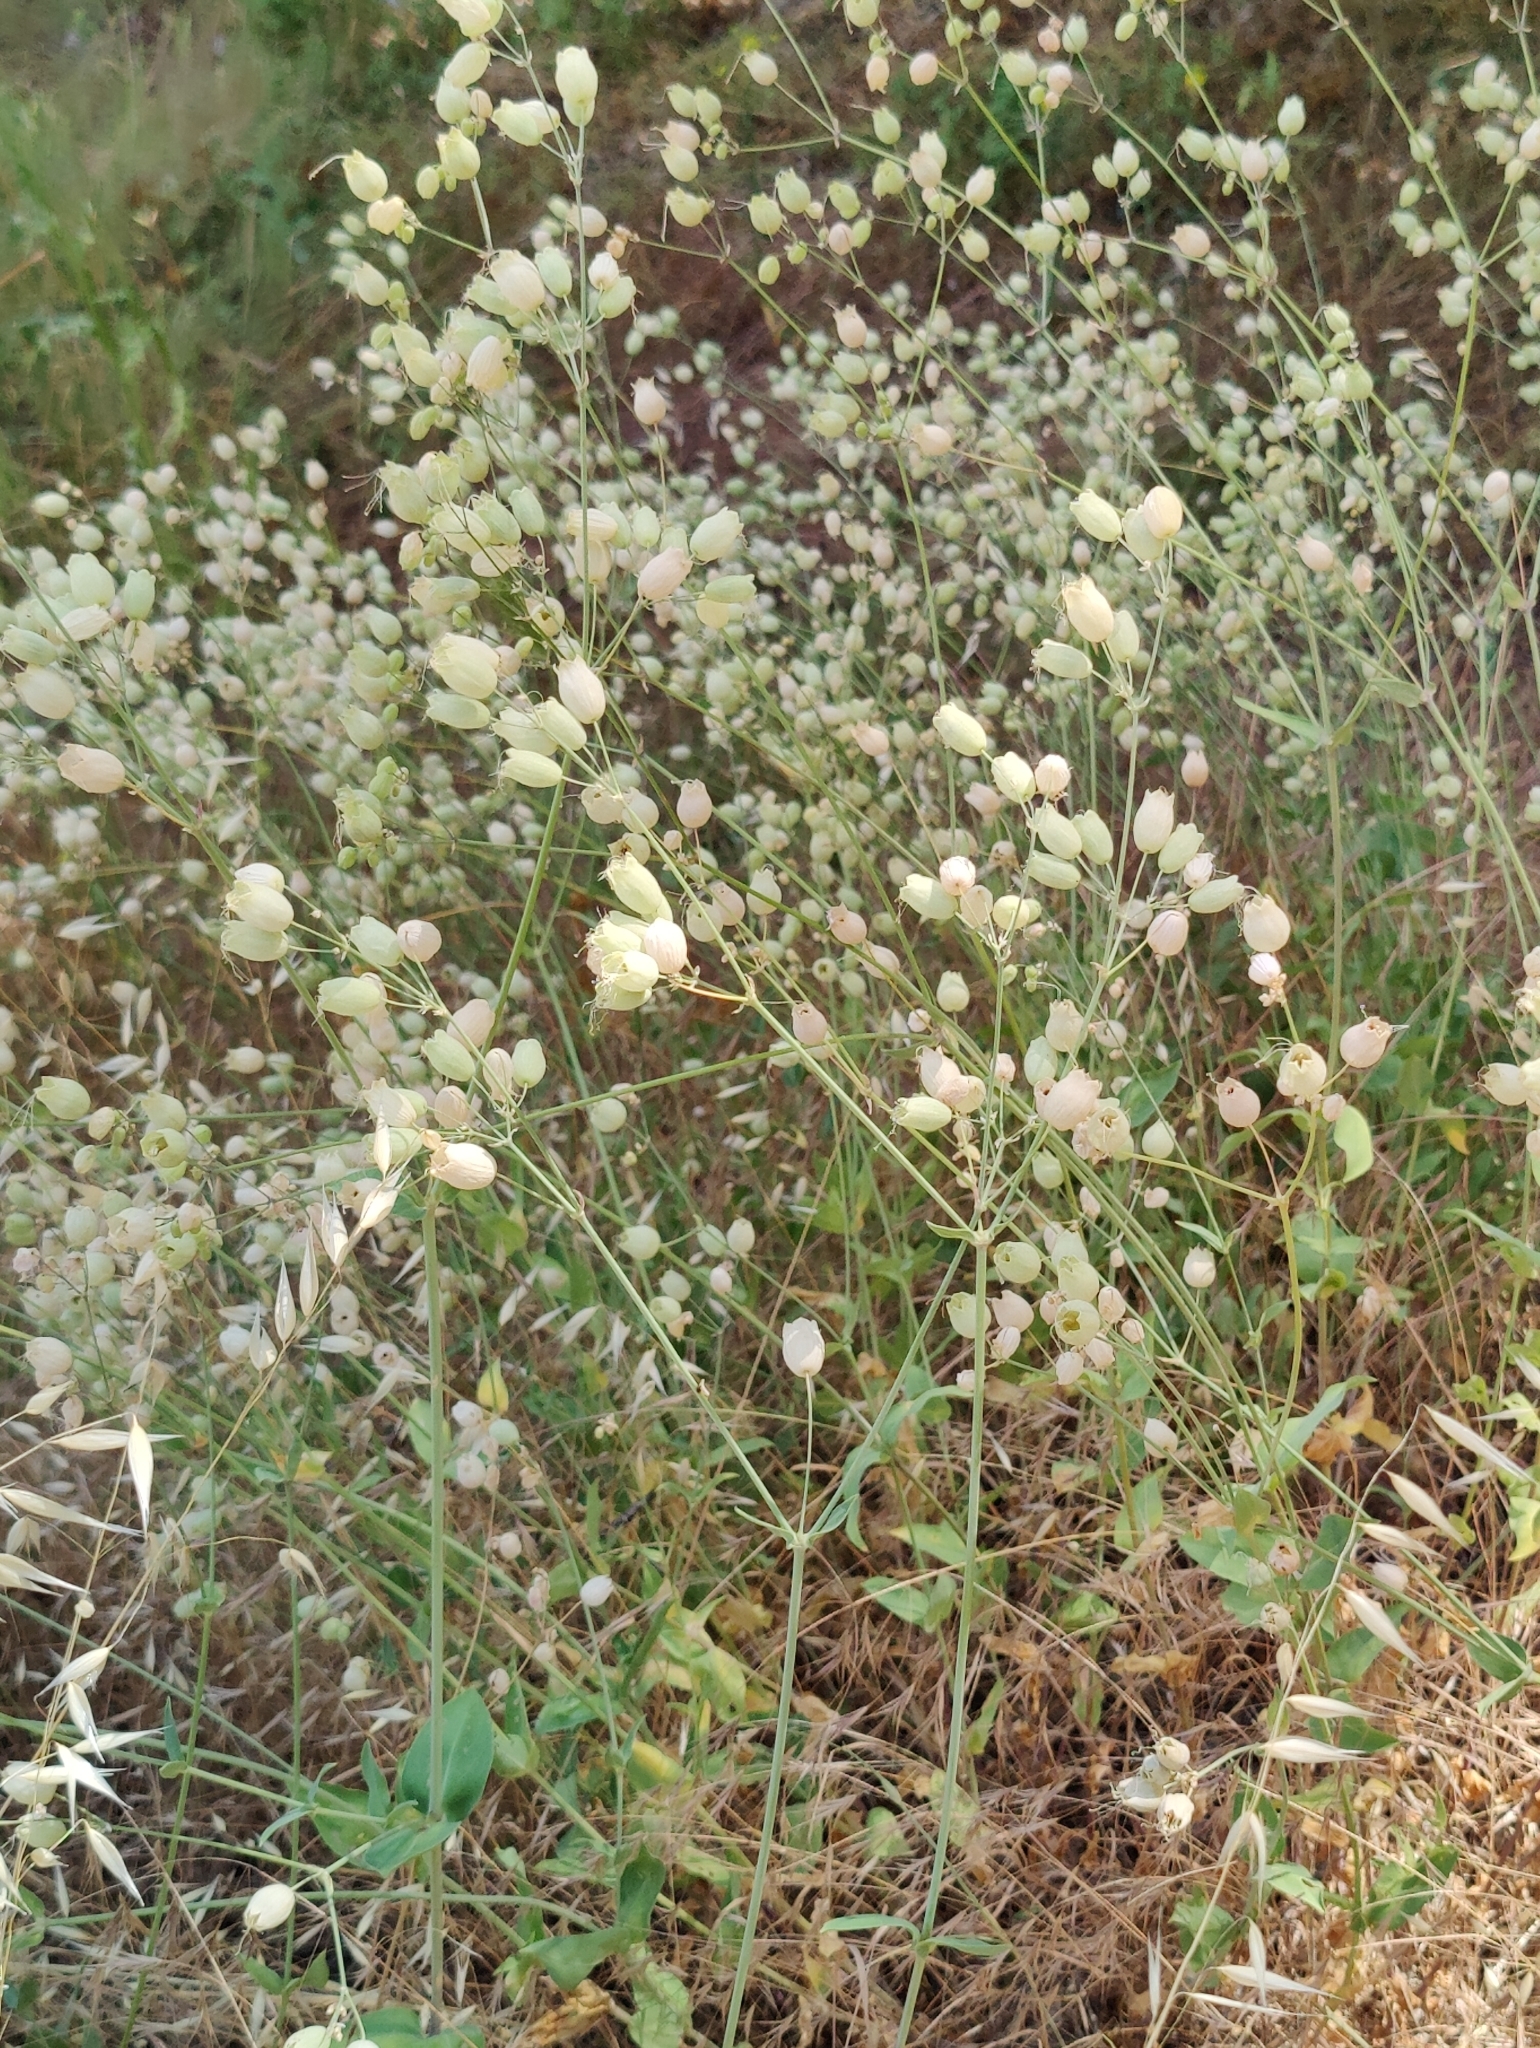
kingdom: Plantae
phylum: Tracheophyta
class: Magnoliopsida
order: Caryophyllales
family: Caryophyllaceae
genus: Silene
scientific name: Silene vulgaris
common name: Bladder campion
